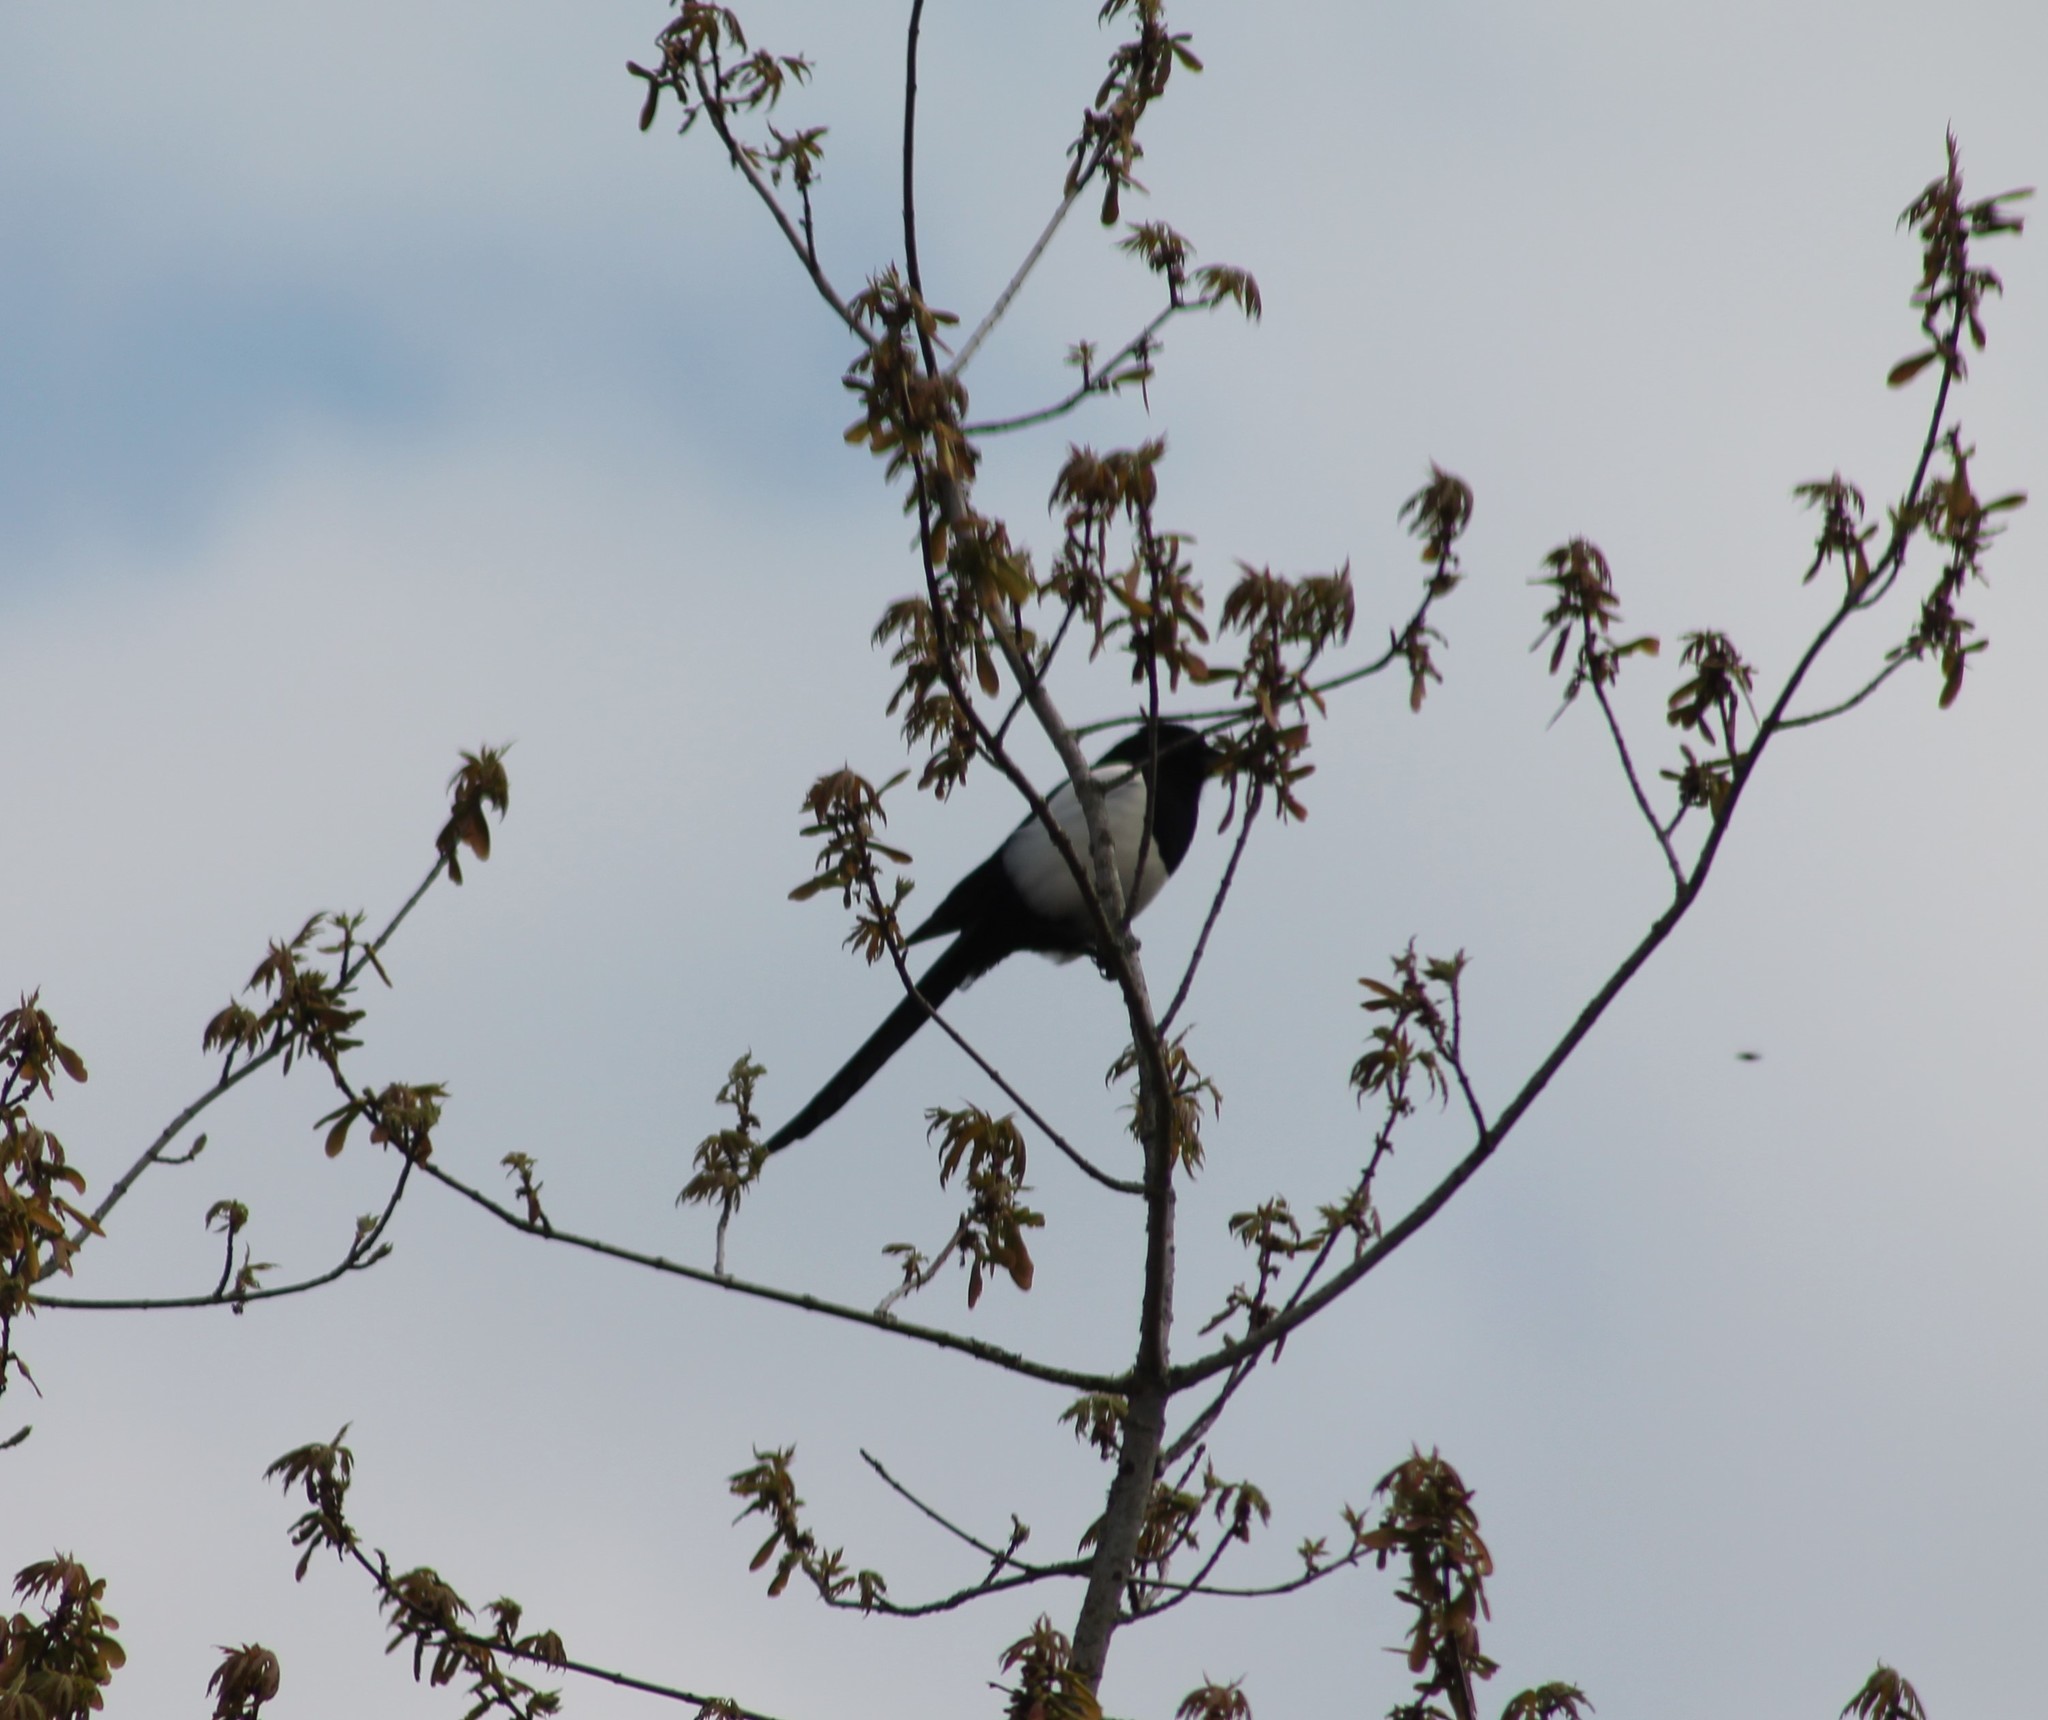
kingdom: Animalia
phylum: Chordata
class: Aves
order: Passeriformes
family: Corvidae
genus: Pica
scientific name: Pica pica
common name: Eurasian magpie
